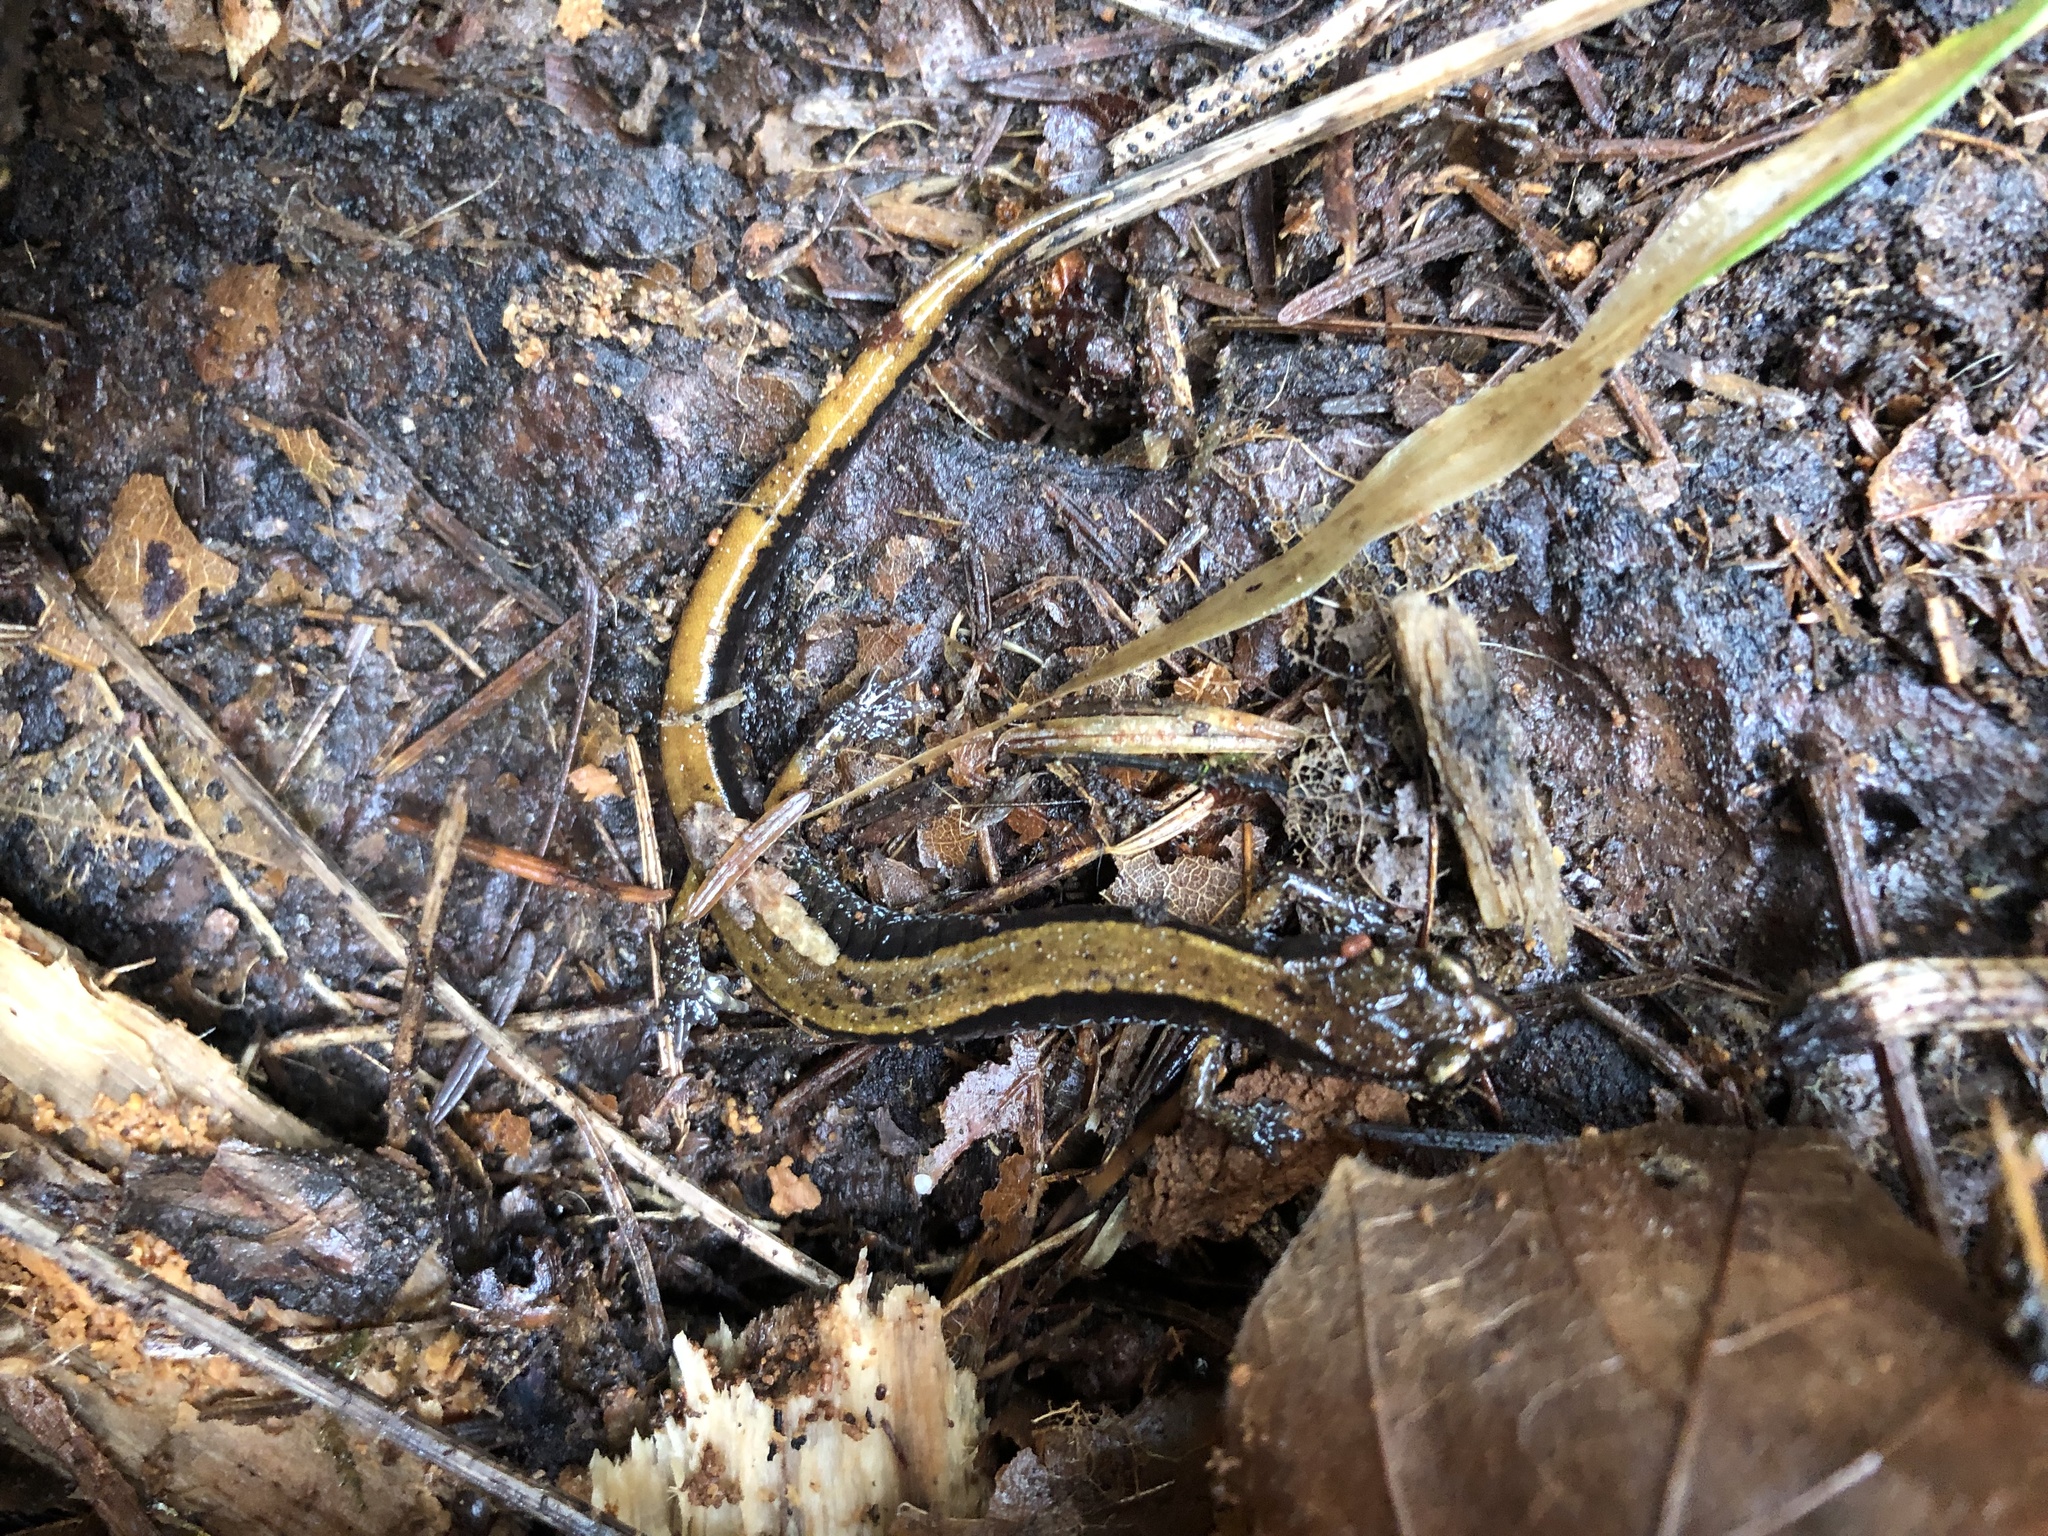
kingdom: Animalia
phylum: Chordata
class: Amphibia
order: Caudata
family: Plethodontidae
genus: Plethodon
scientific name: Plethodon vehiculum
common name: Western red-backed salamander
